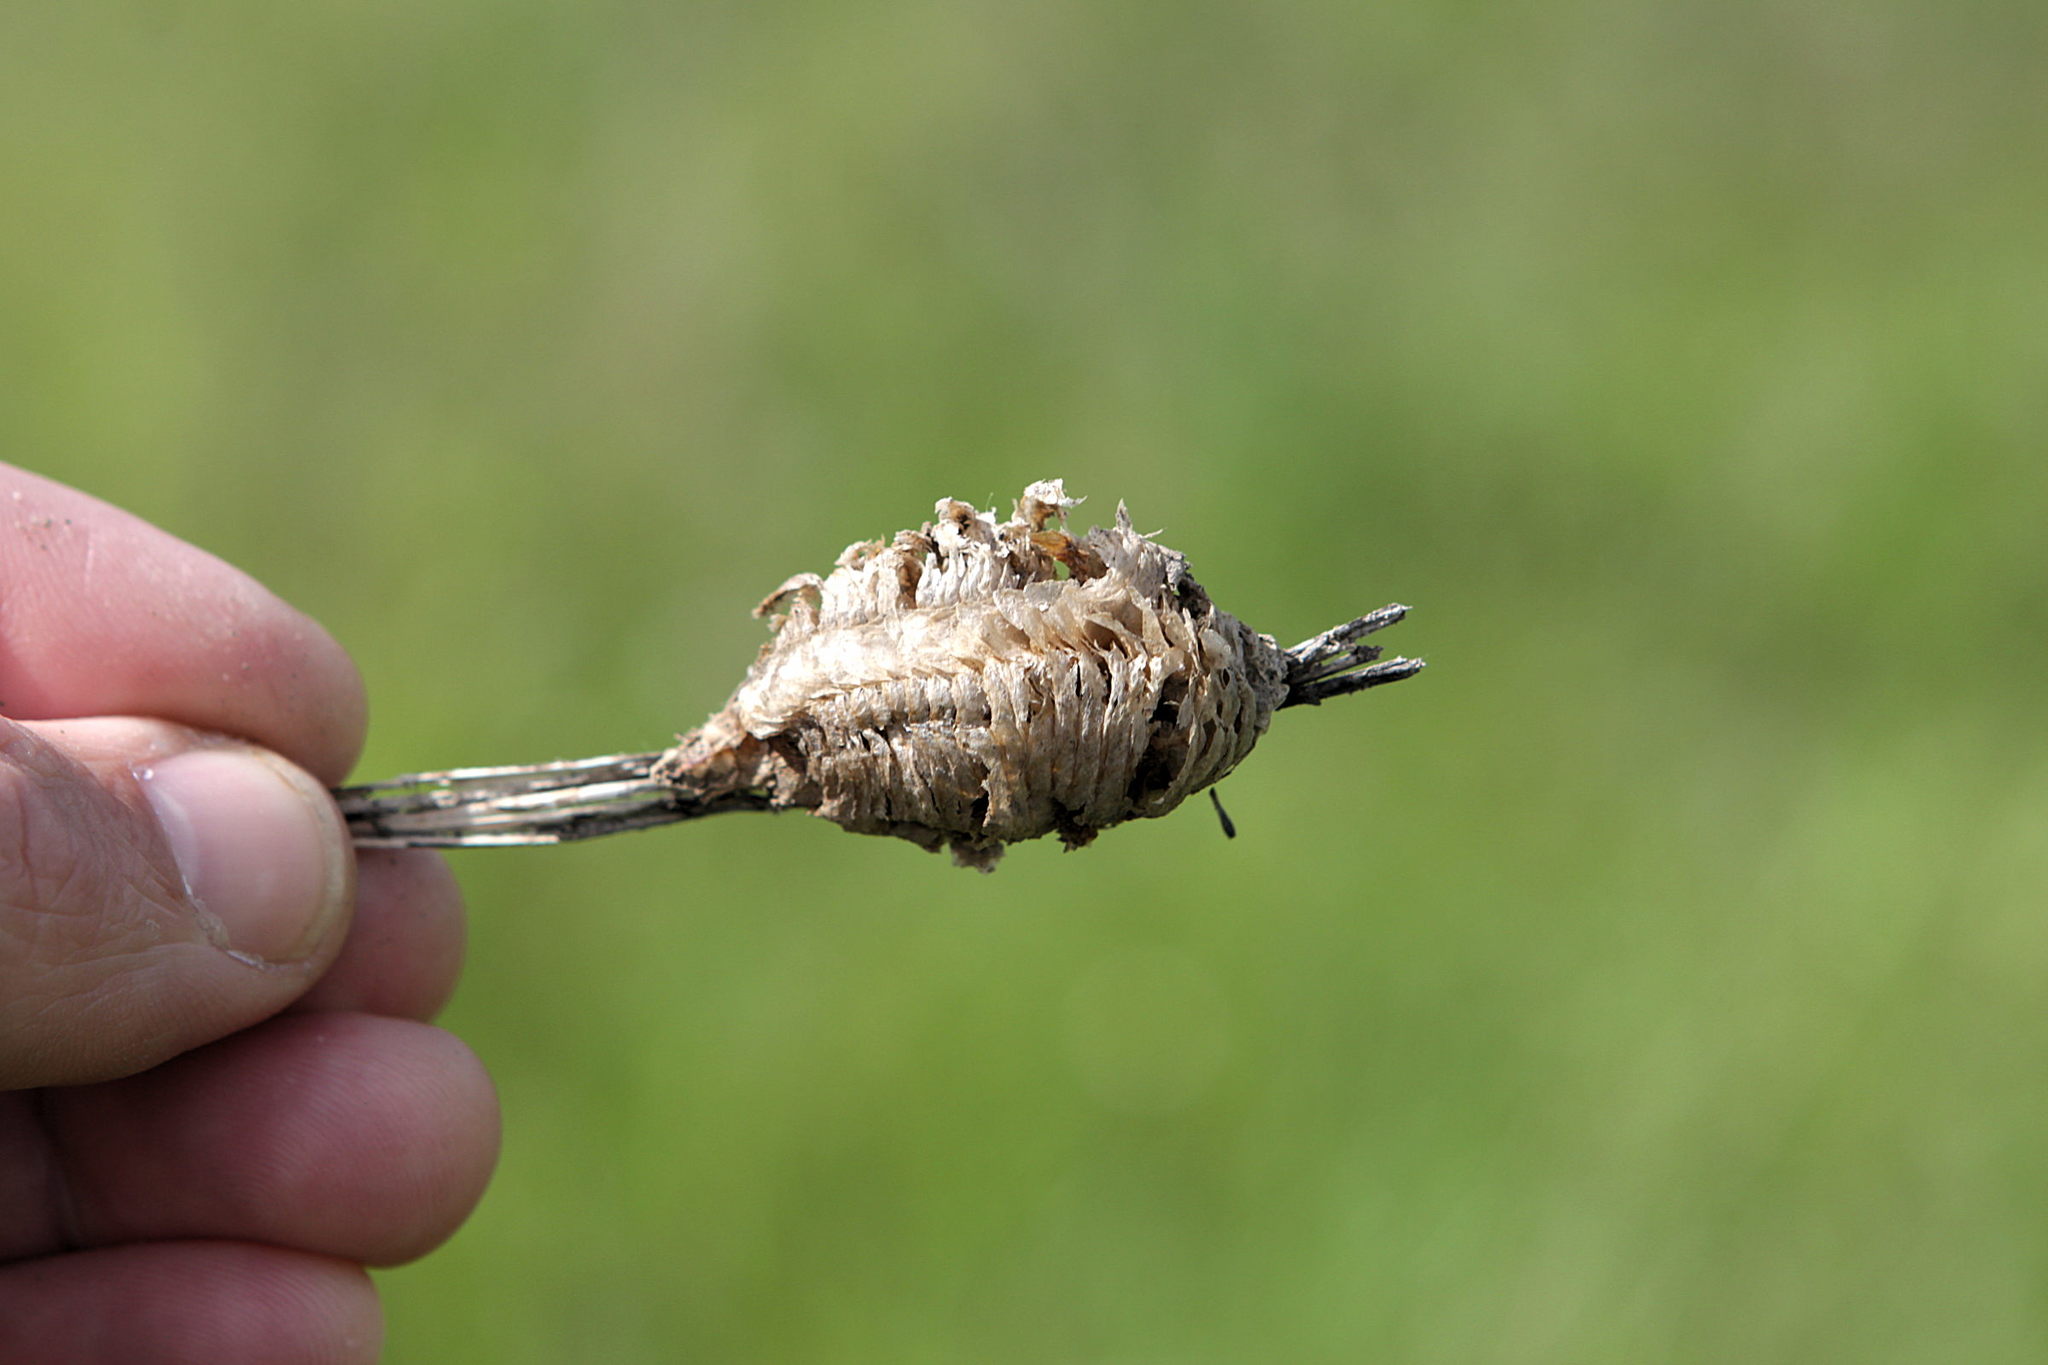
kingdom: Animalia
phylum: Arthropoda
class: Insecta
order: Mantodea
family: Mantidae
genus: Mantis
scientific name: Mantis religiosa
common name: Praying mantis
